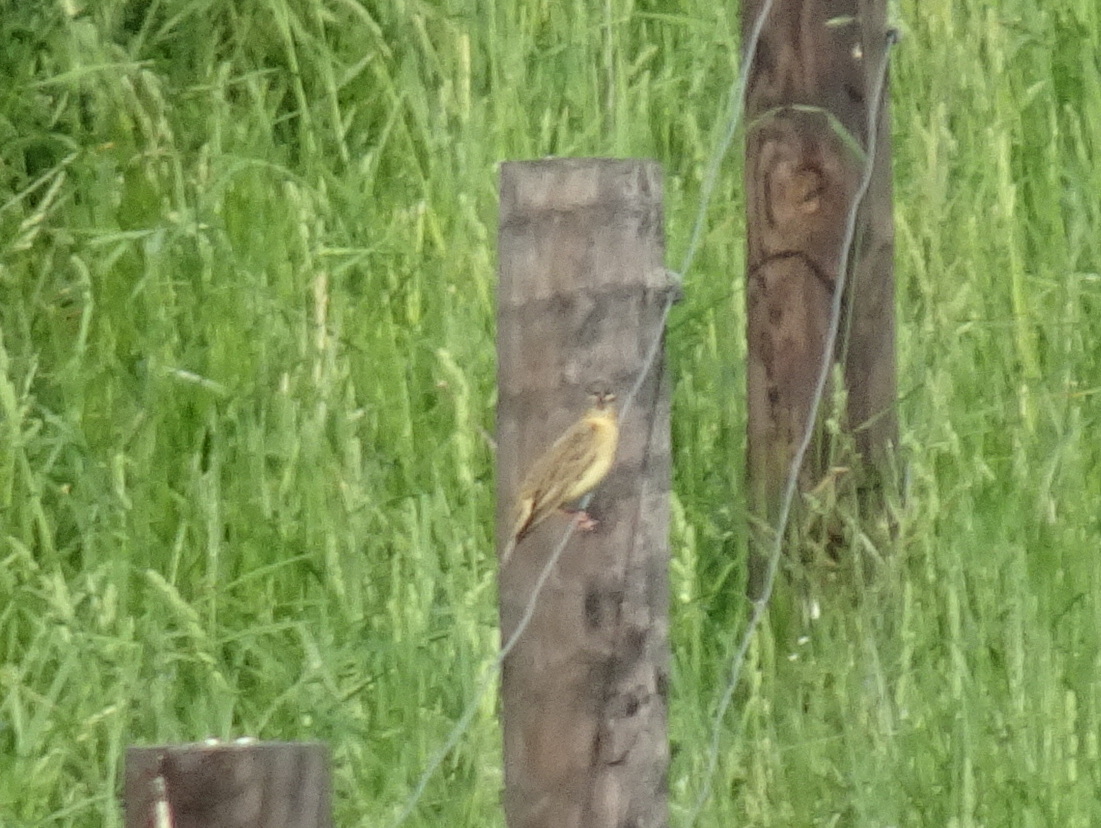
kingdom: Animalia
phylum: Chordata
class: Aves
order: Passeriformes
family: Icteridae
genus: Dolichonyx
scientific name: Dolichonyx oryzivorus
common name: Bobolink
